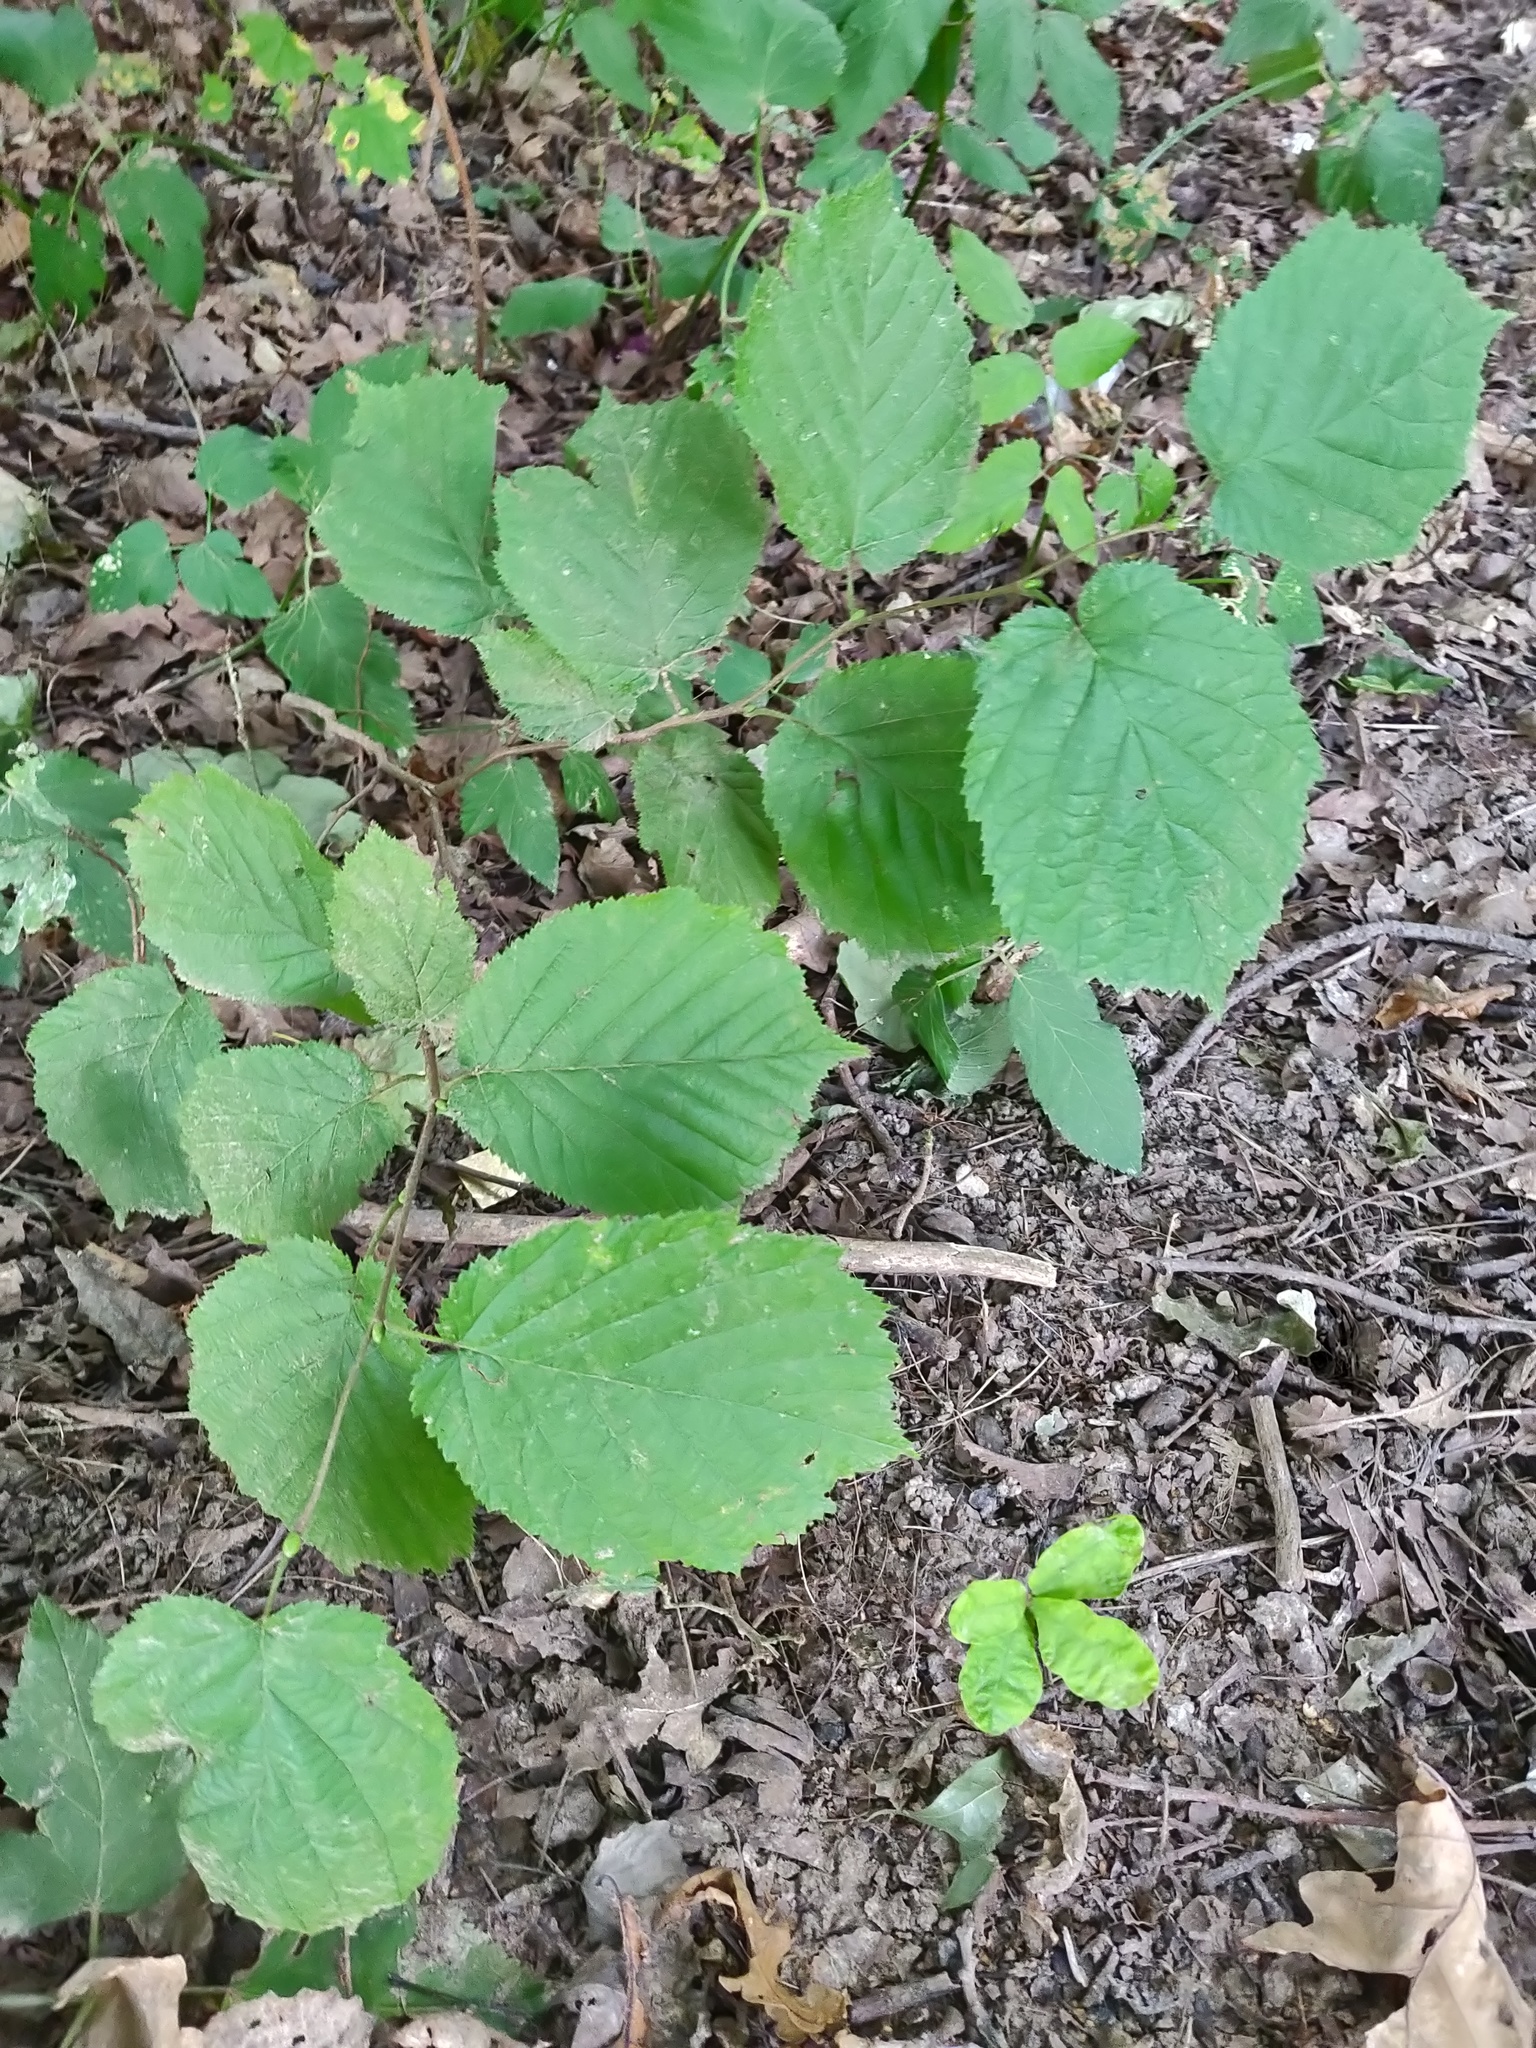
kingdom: Plantae
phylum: Tracheophyta
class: Magnoliopsida
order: Fagales
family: Betulaceae
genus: Corylus
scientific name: Corylus avellana
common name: European hazel
